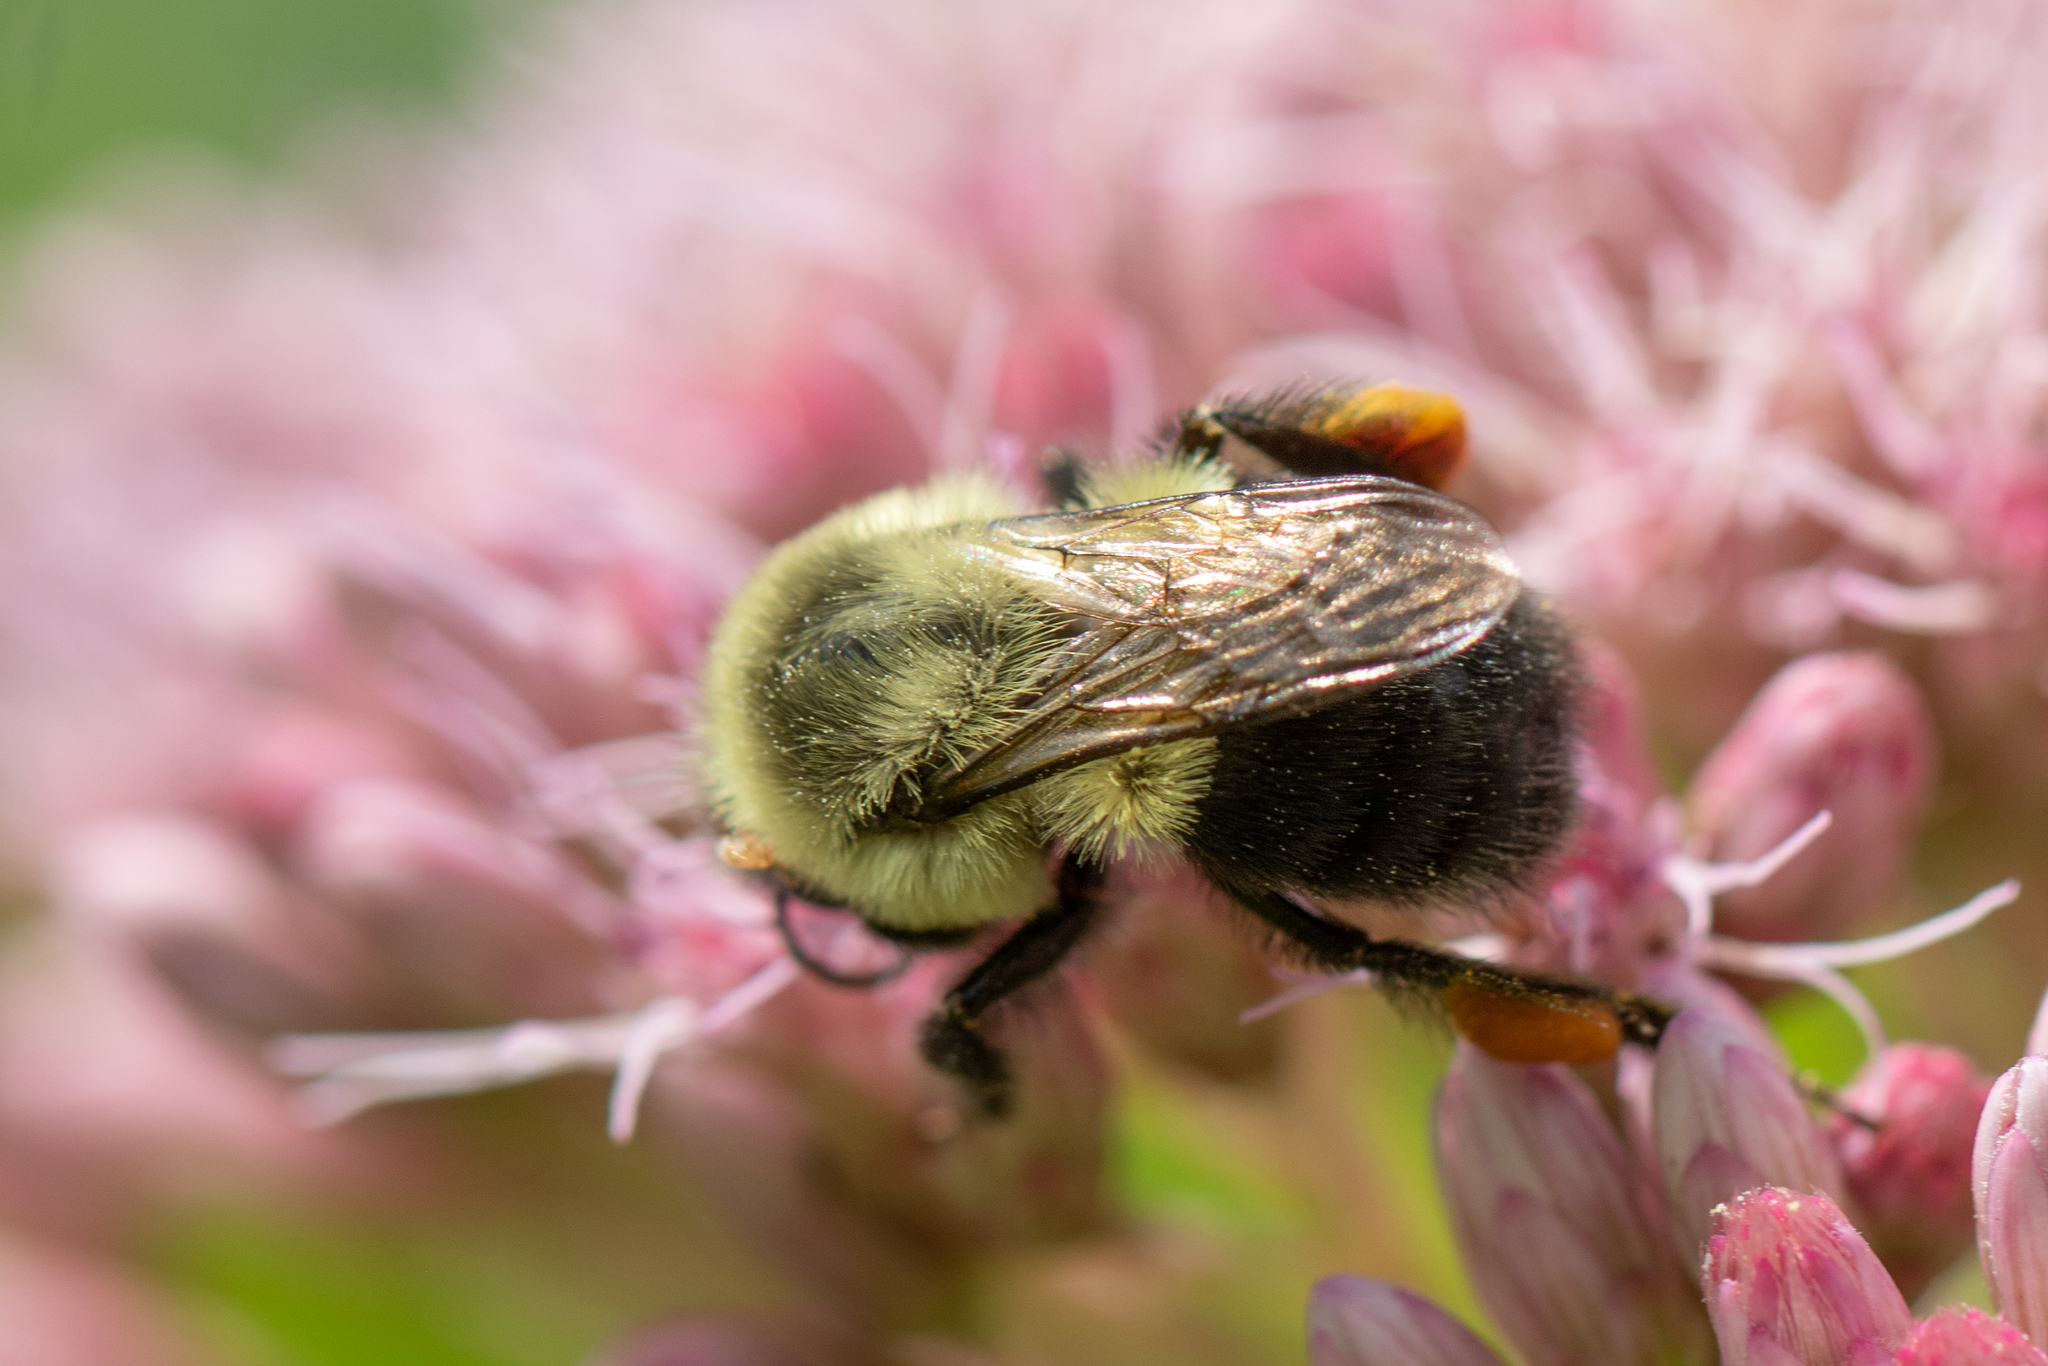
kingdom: Animalia
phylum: Arthropoda
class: Insecta
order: Hymenoptera
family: Apidae
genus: Bombus
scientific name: Bombus impatiens
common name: Common eastern bumble bee
